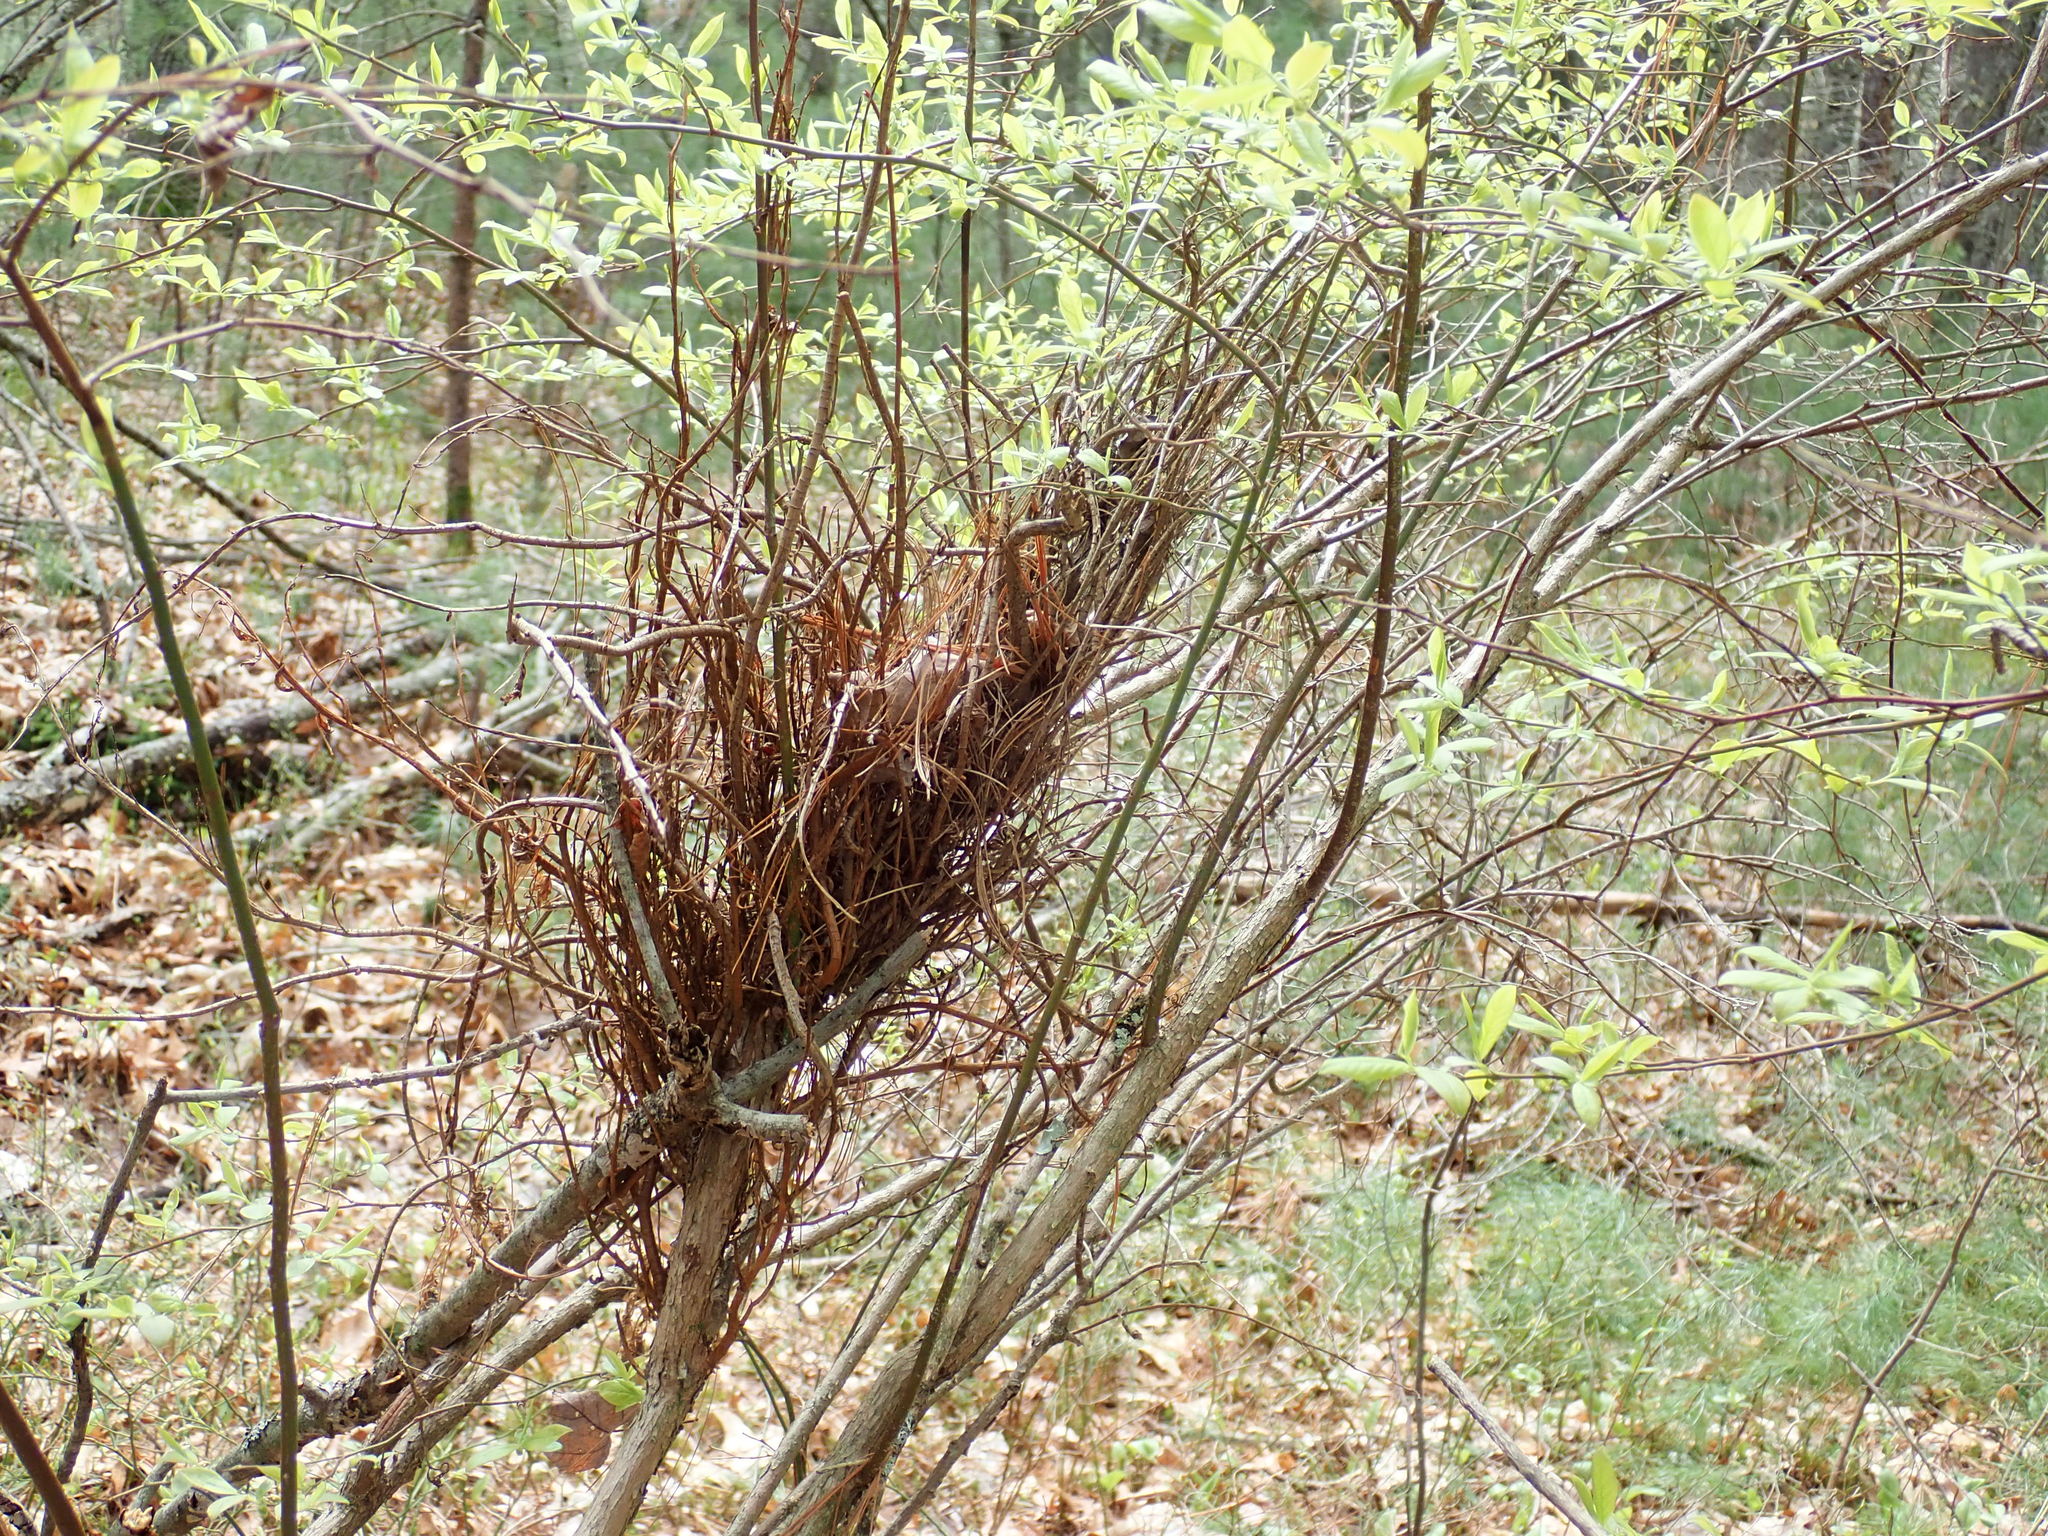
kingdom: Fungi
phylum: Basidiomycota
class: Pucciniomycetes
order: Pucciniales
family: Pucciniastraceae
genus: Calyptospora
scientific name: Calyptospora columnaris
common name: Huckleberry broom rust fungus
